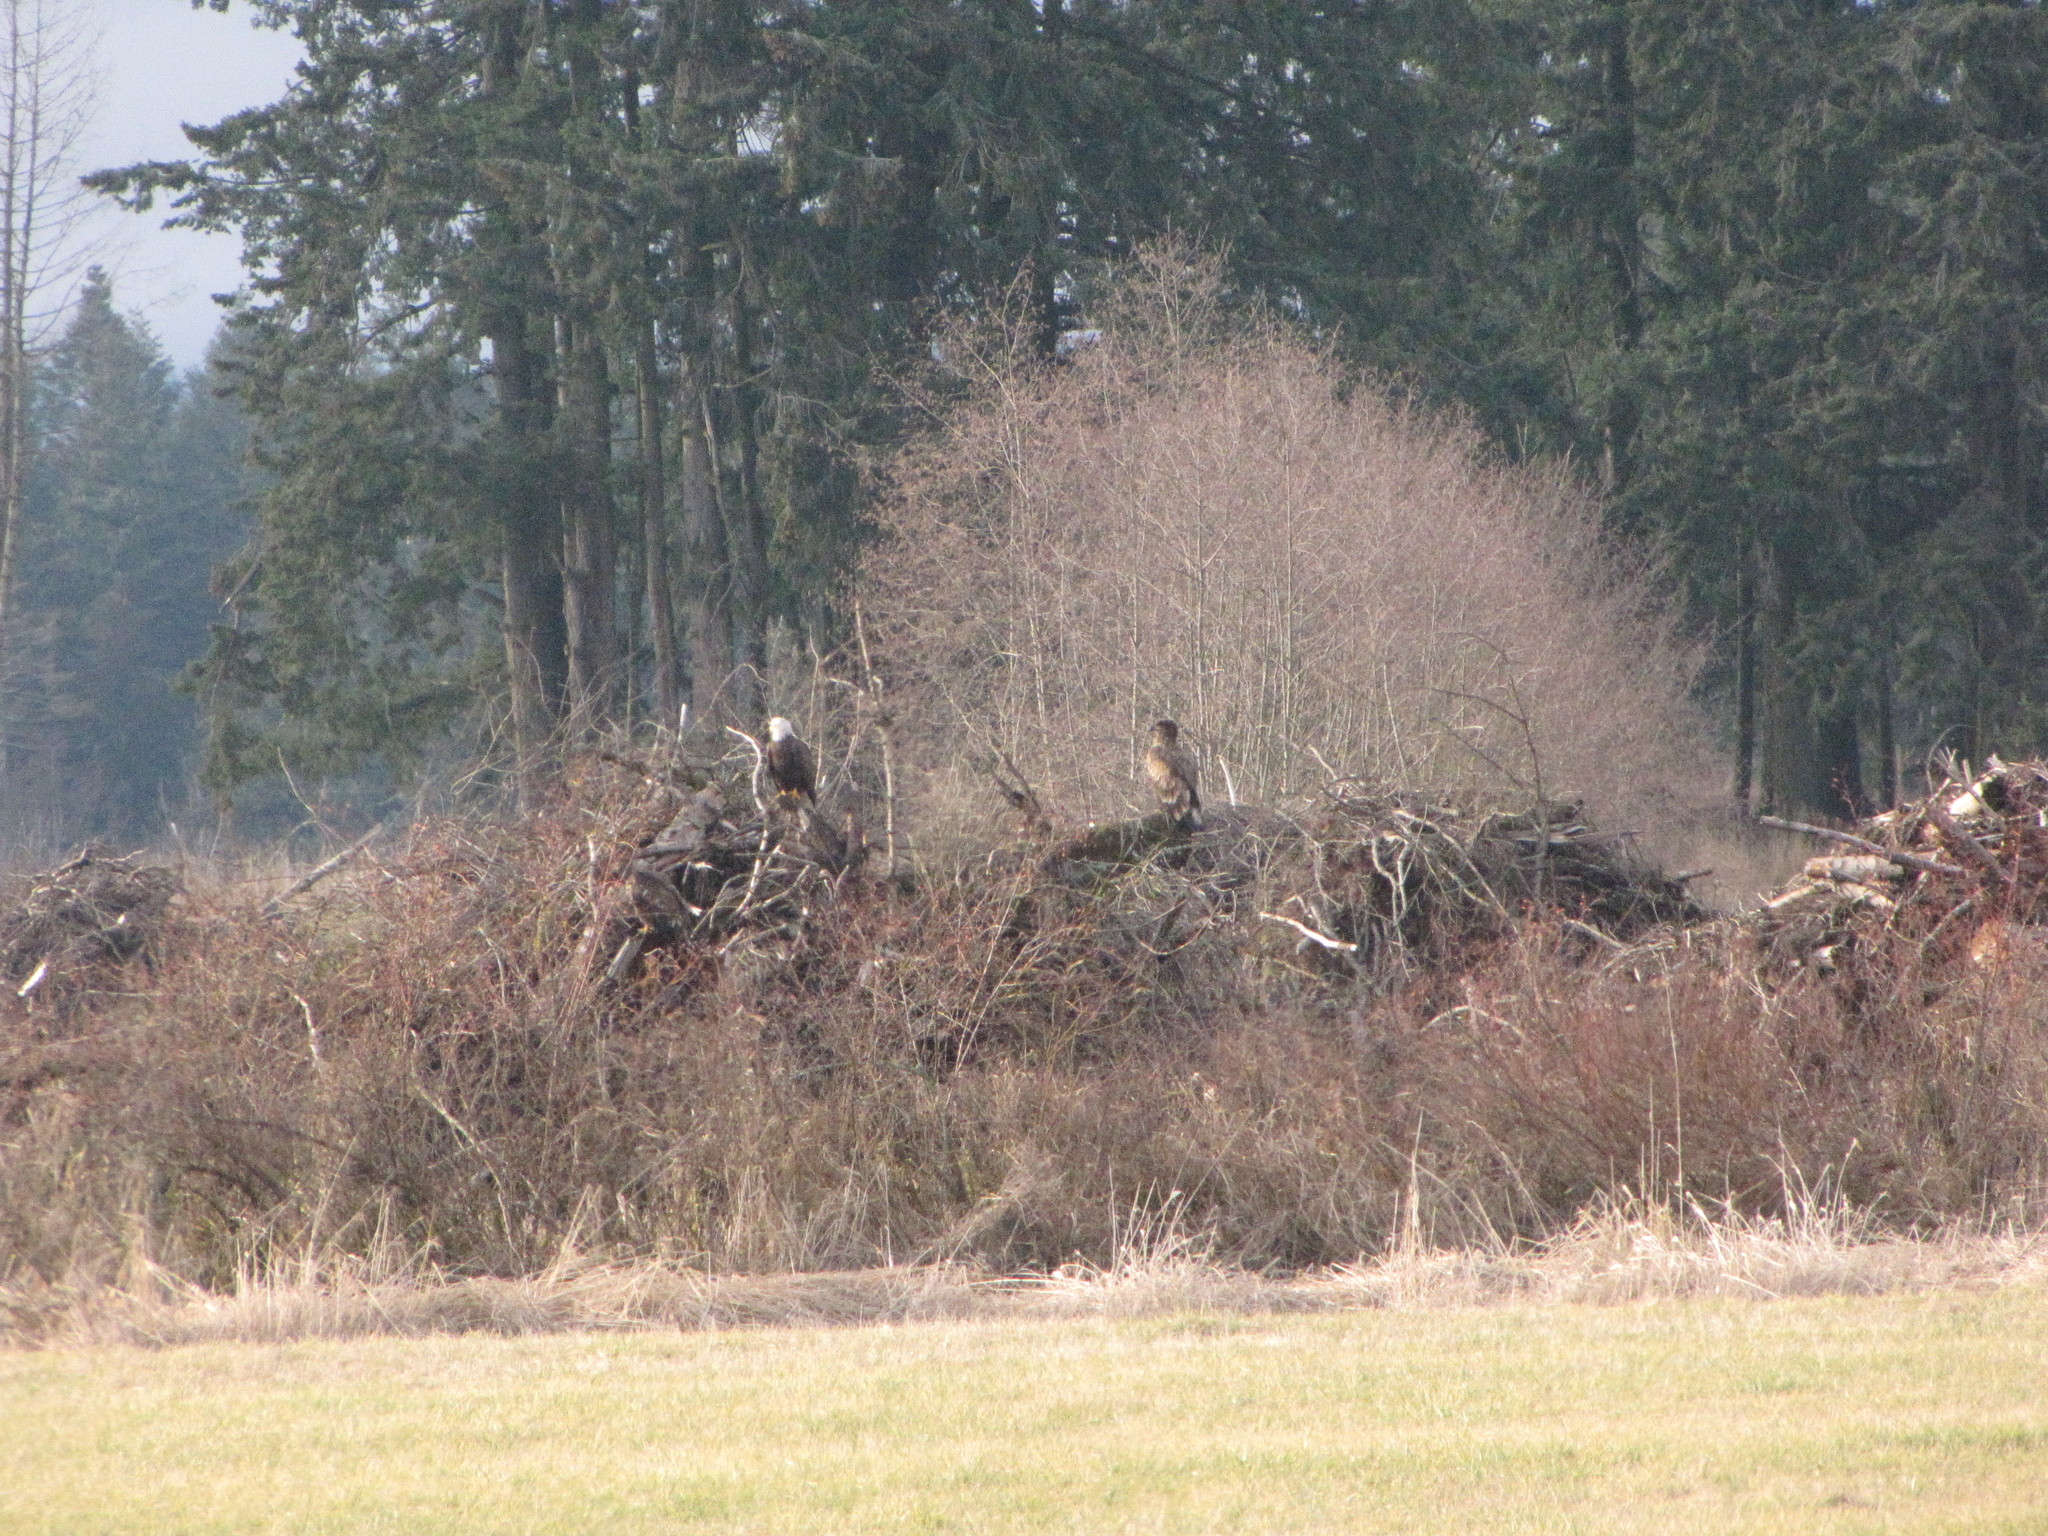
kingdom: Animalia
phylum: Chordata
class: Aves
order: Accipitriformes
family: Accipitridae
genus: Haliaeetus
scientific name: Haliaeetus leucocephalus
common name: Bald eagle
